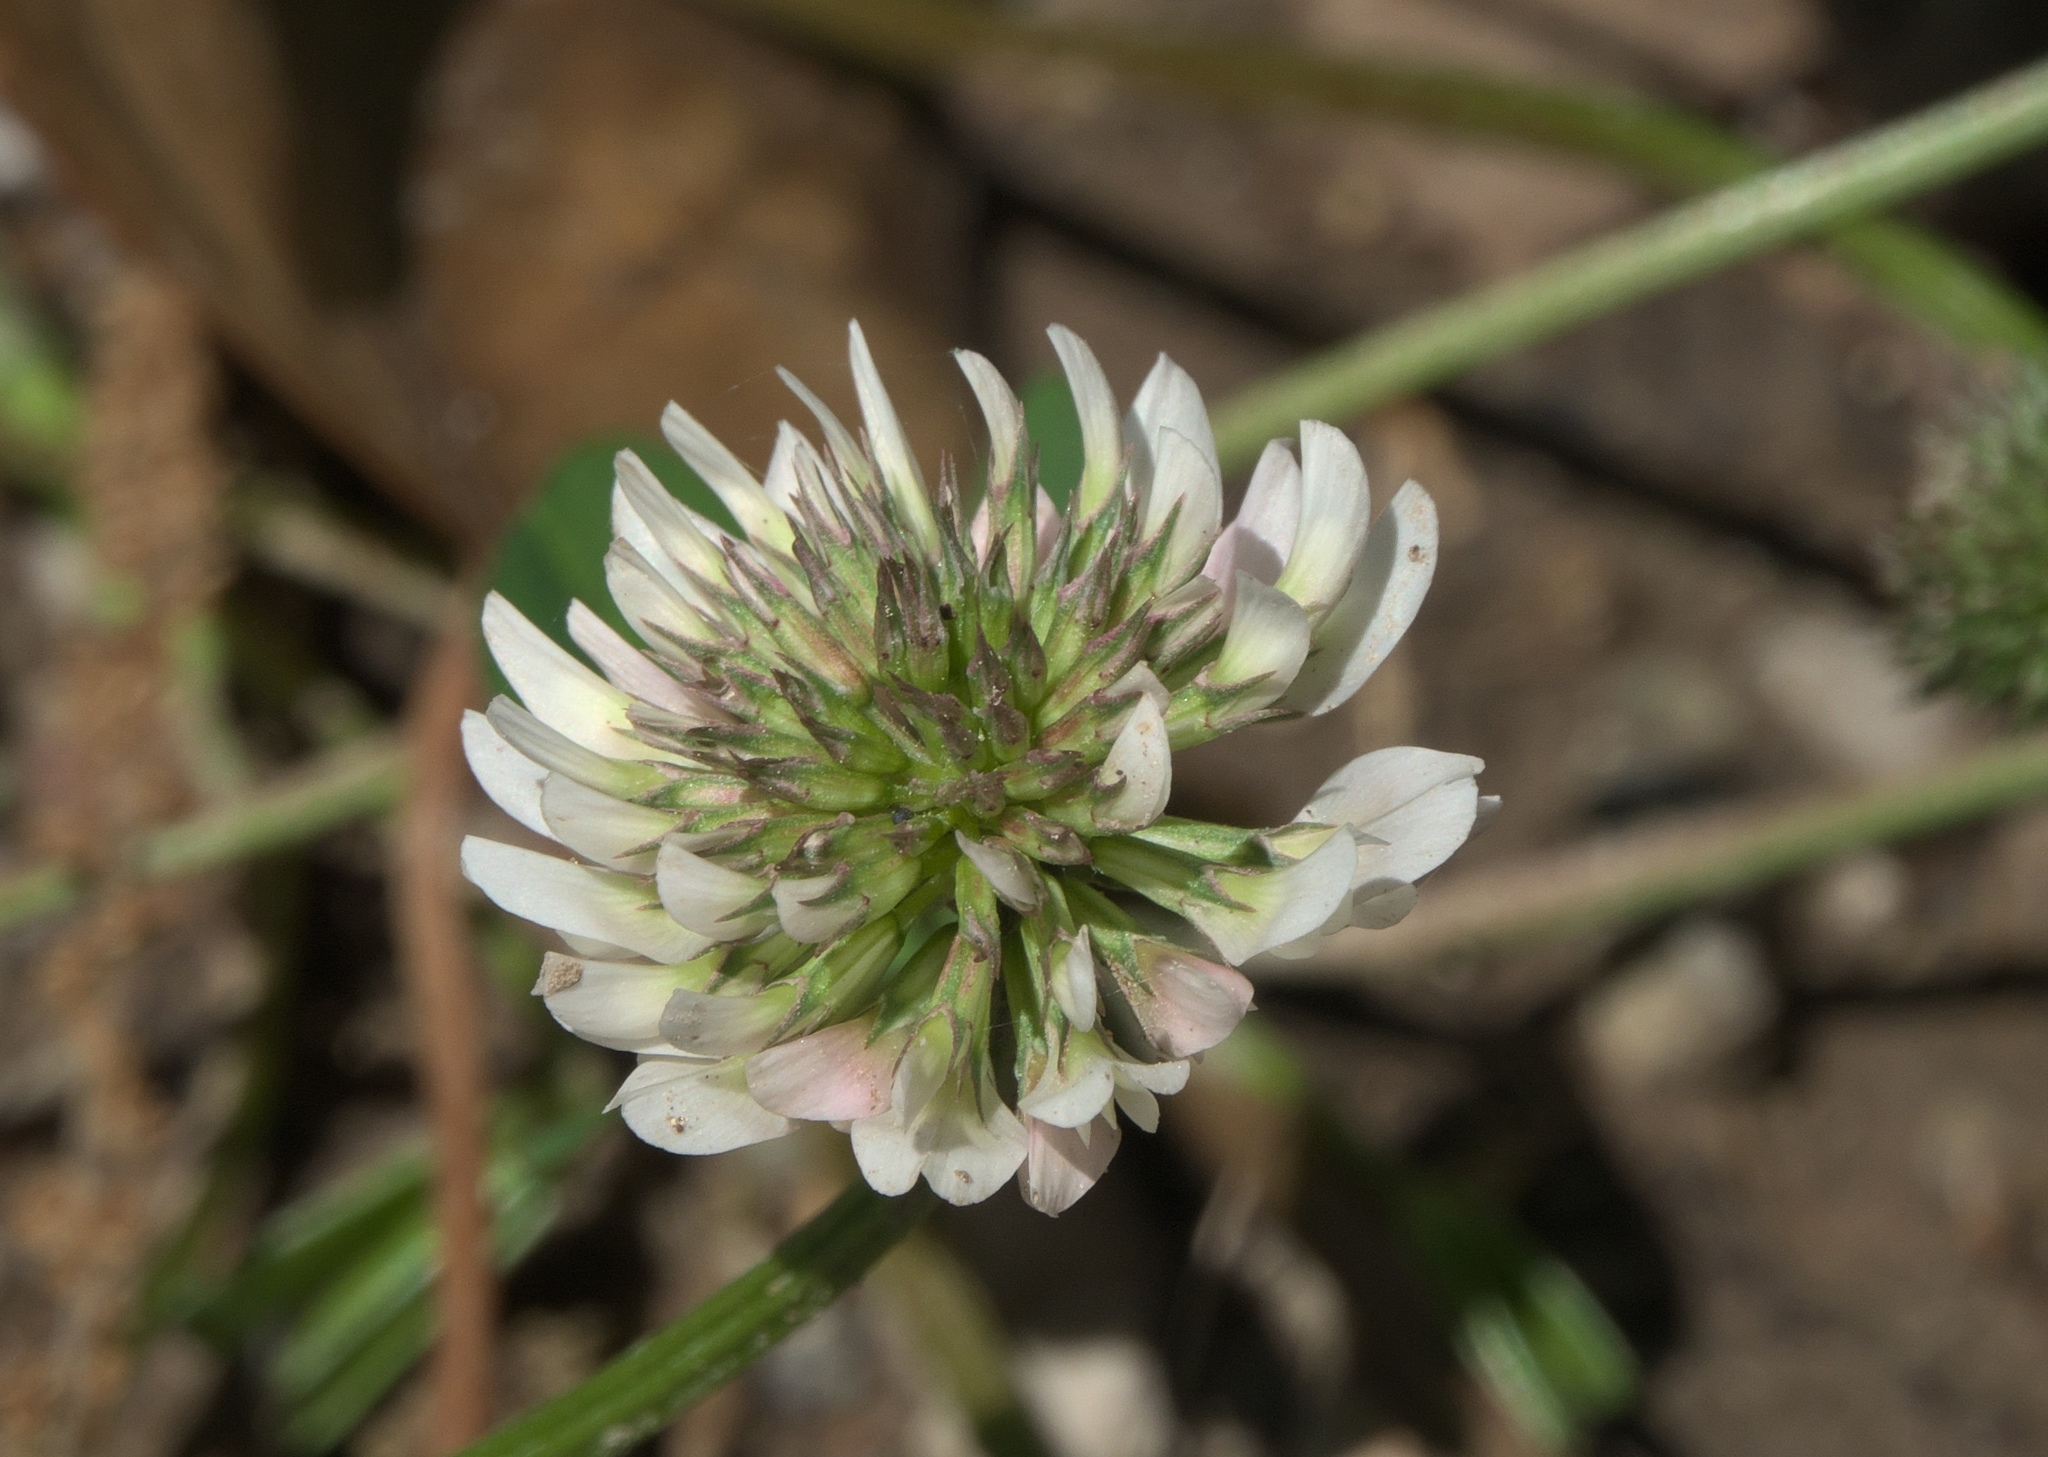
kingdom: Plantae
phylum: Tracheophyta
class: Magnoliopsida
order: Fabales
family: Fabaceae
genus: Trifolium
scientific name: Trifolium repens
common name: White clover
